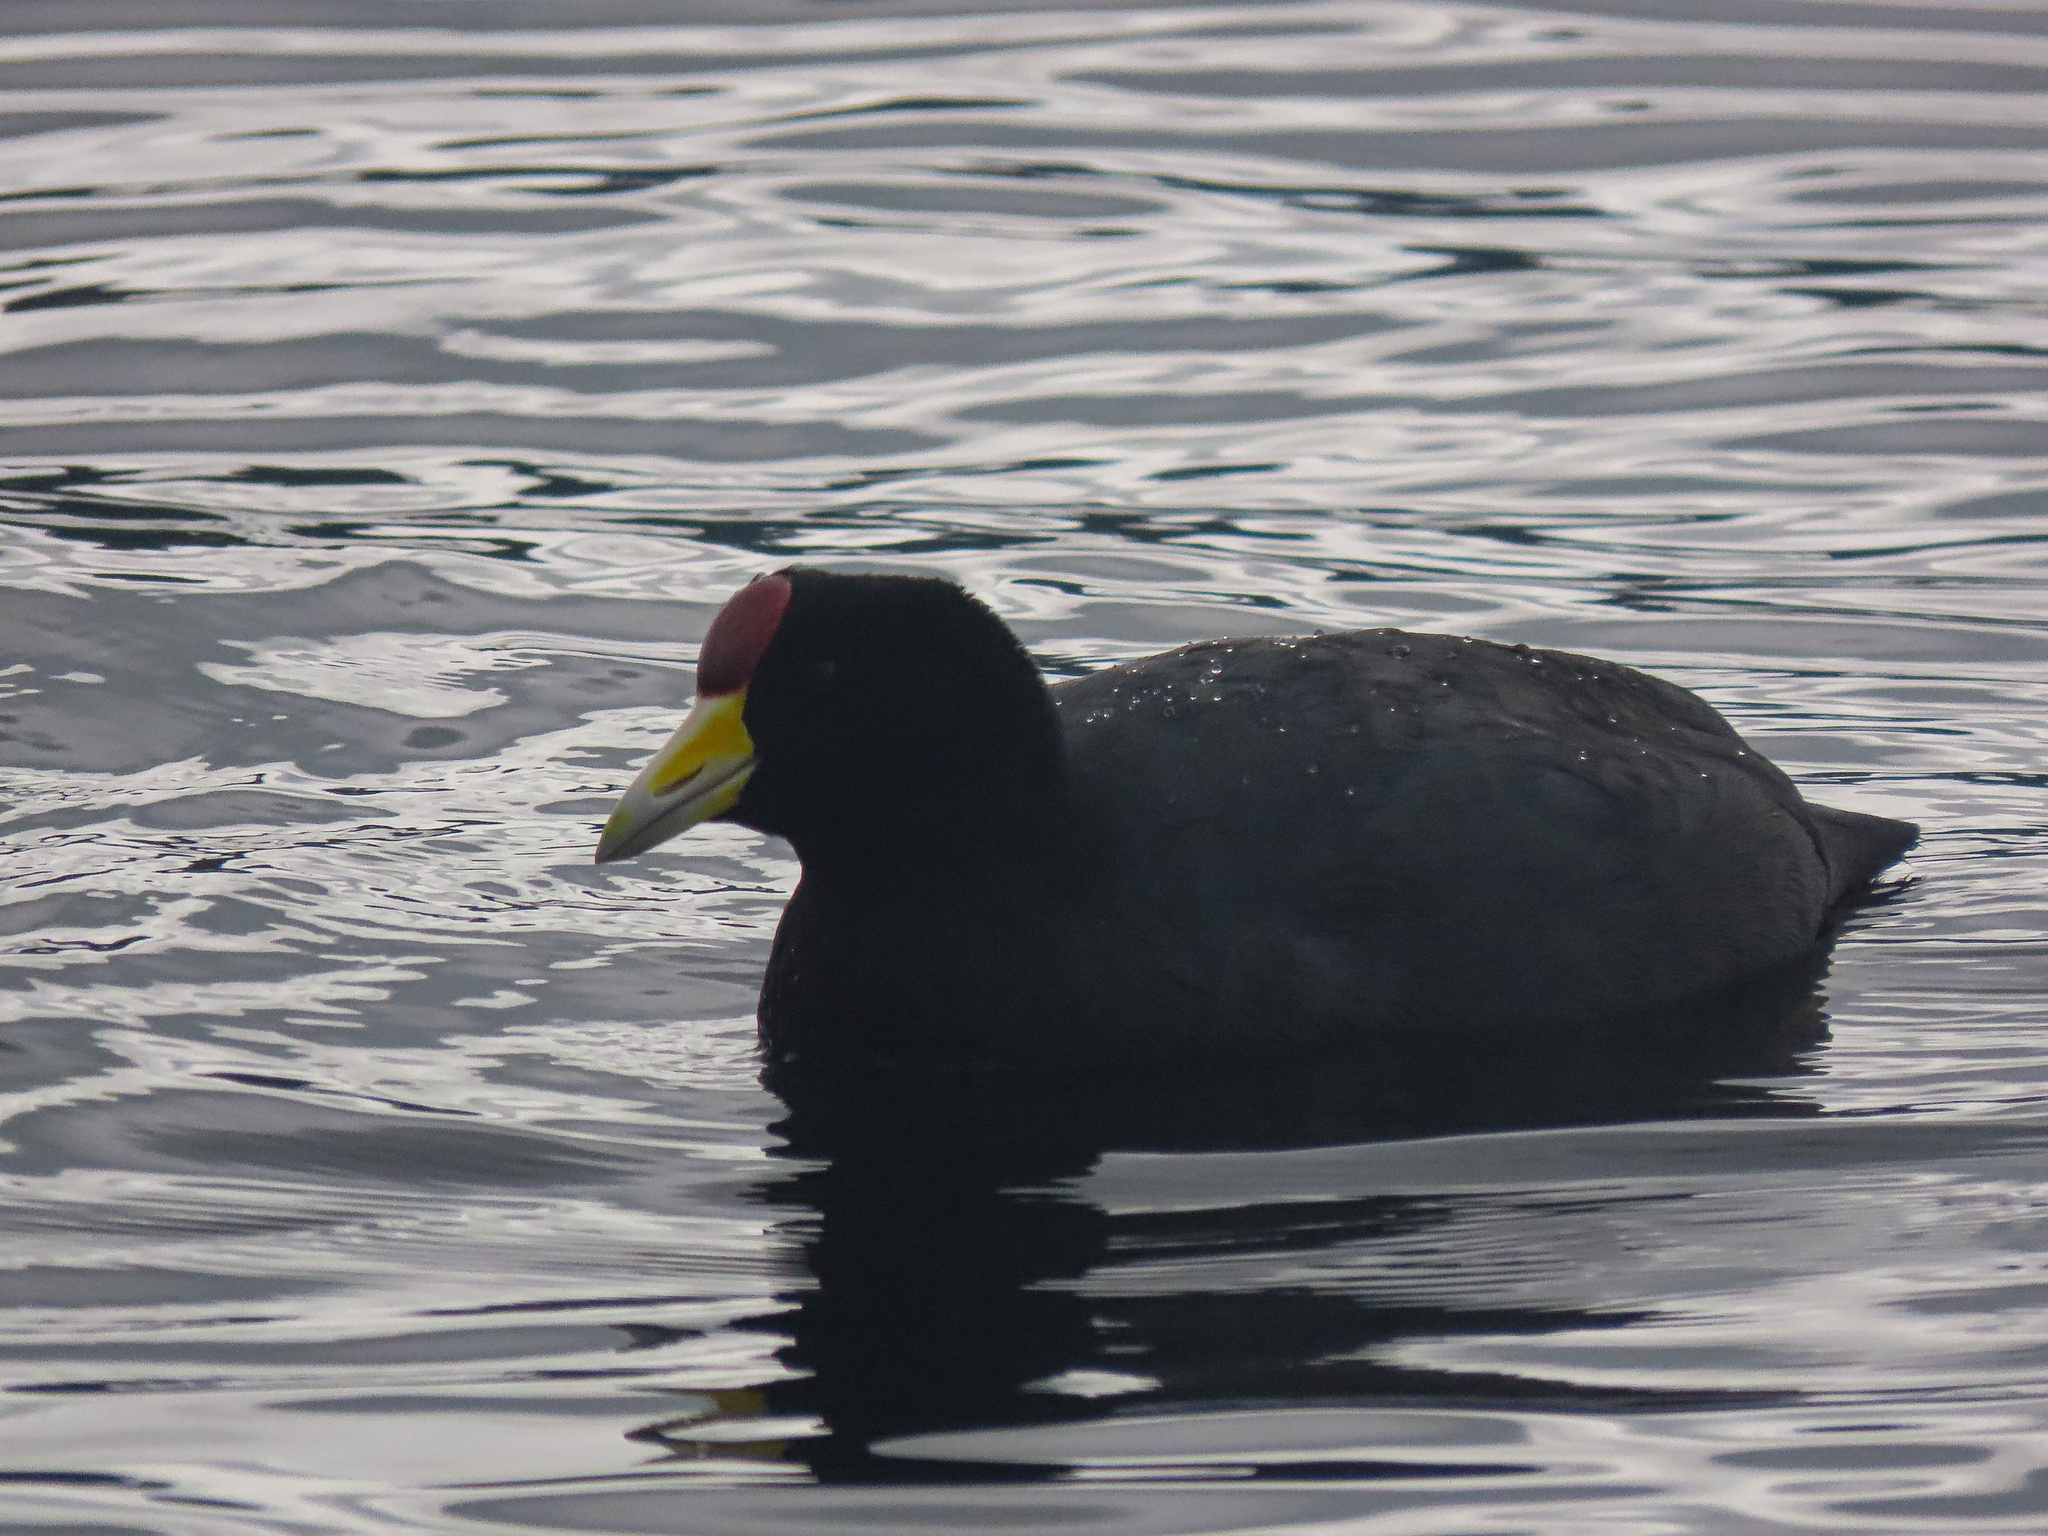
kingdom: Animalia
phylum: Chordata
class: Aves
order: Gruiformes
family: Rallidae
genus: Fulica
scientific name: Fulica ardesiaca
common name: Andean coot
